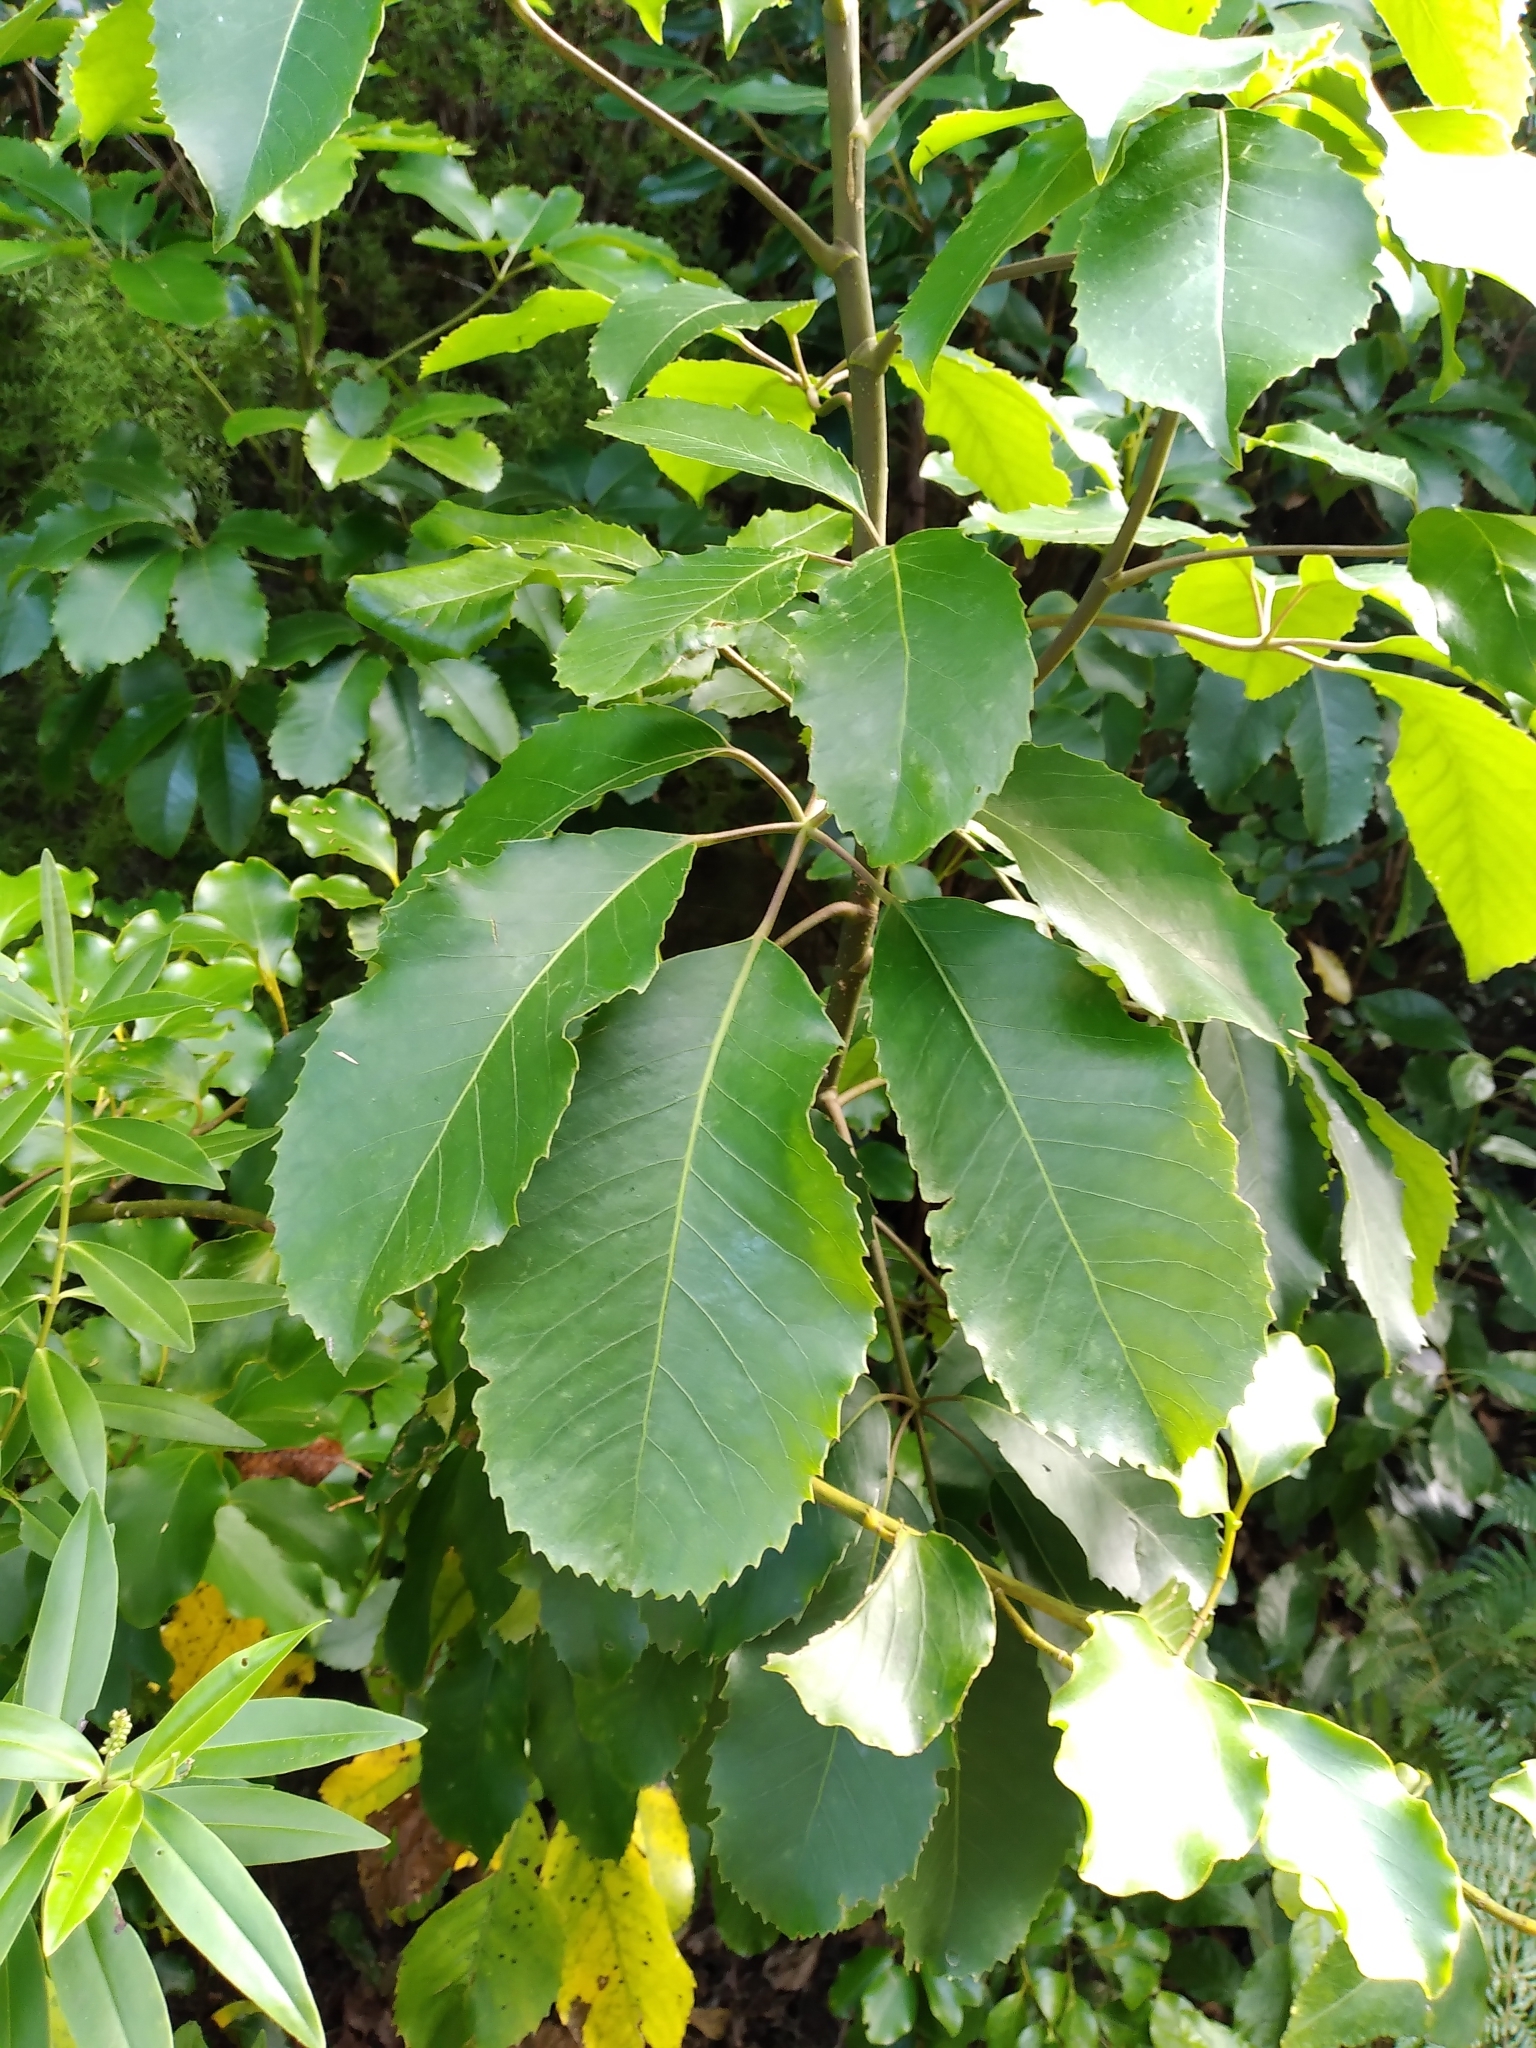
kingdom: Plantae
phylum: Tracheophyta
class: Magnoliopsida
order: Apiales
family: Araliaceae
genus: Neopanax
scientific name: Neopanax arboreus
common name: Five-fingers
